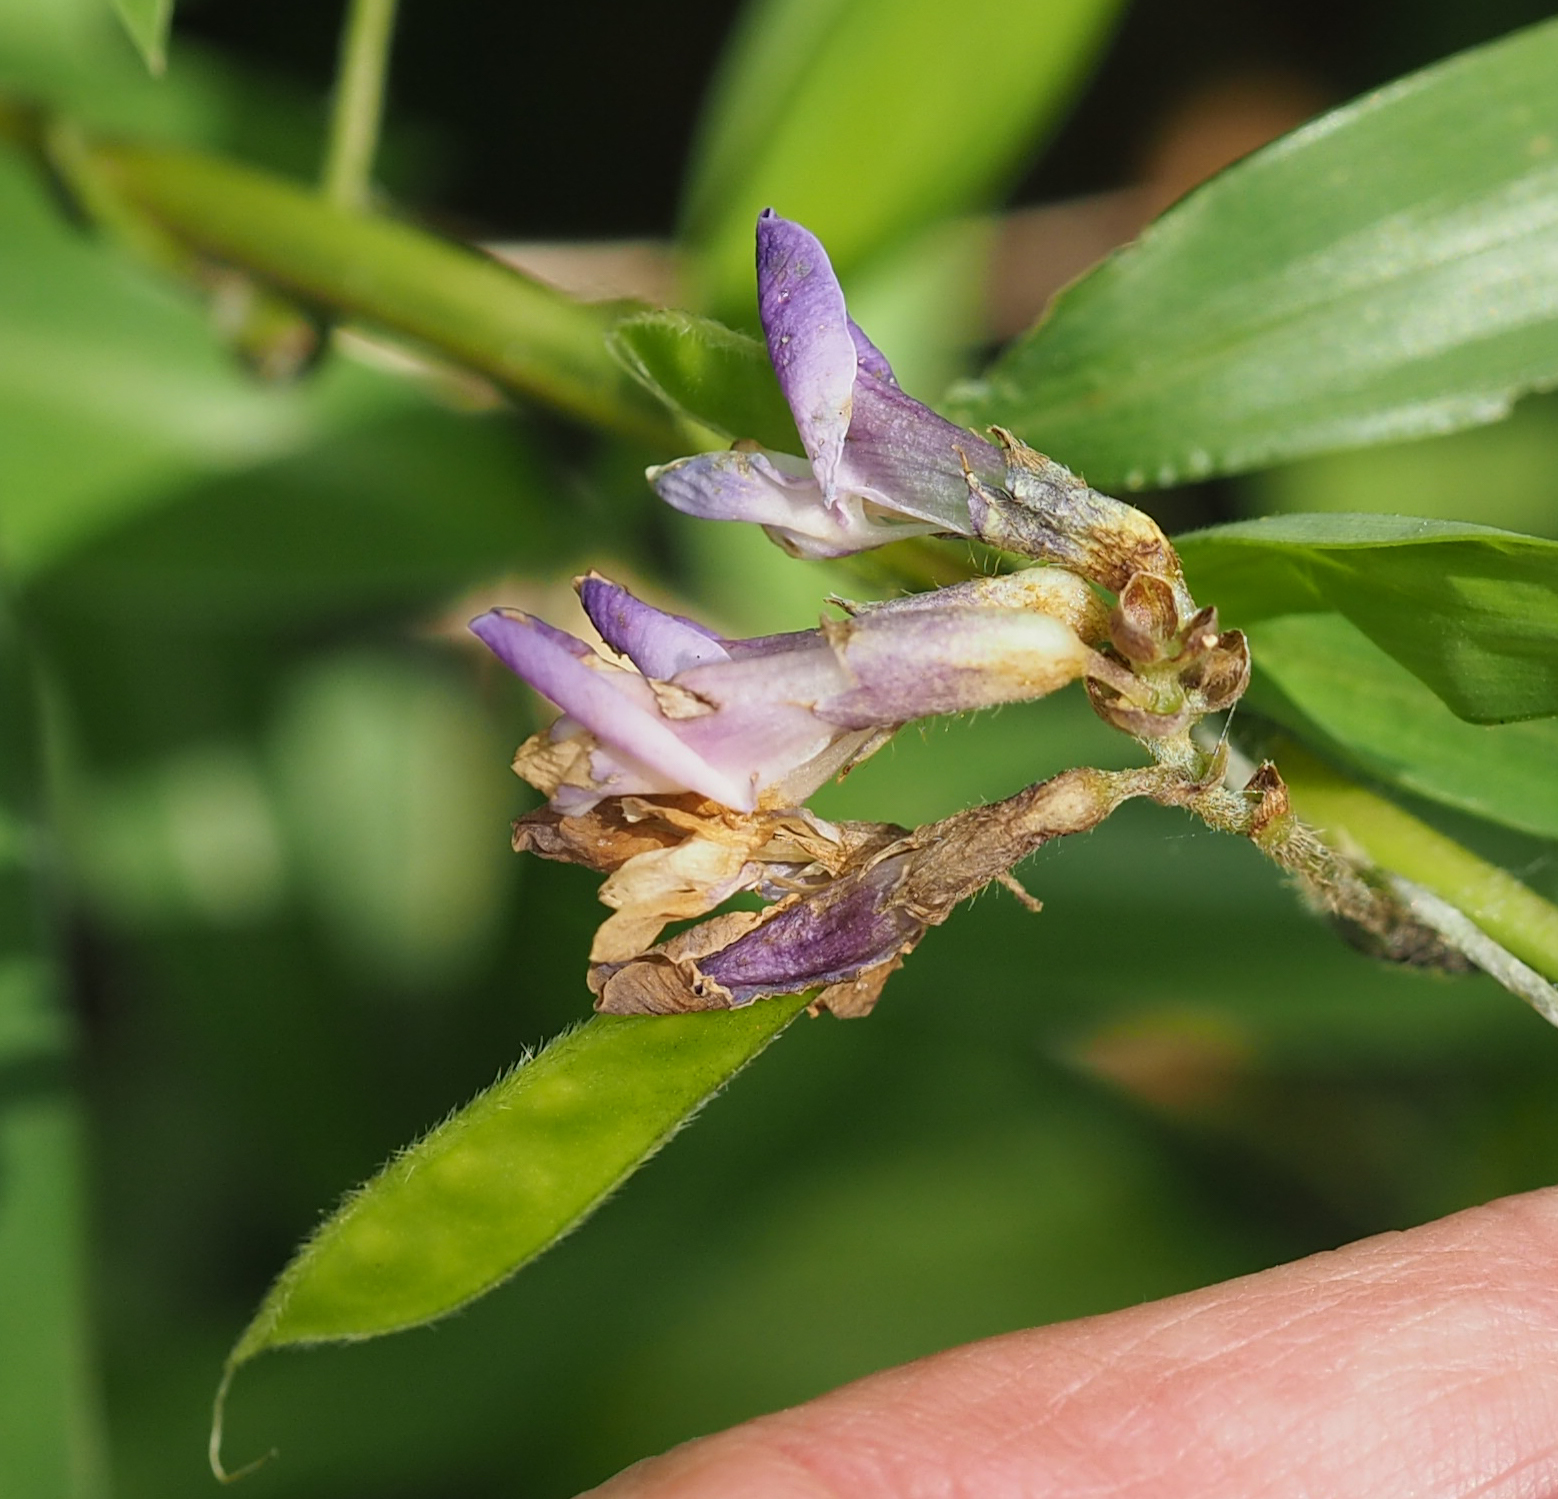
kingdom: Plantae
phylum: Tracheophyta
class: Magnoliopsida
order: Fabales
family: Fabaceae
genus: Amphicarpaea
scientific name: Amphicarpaea bracteata
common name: American hog peanut
